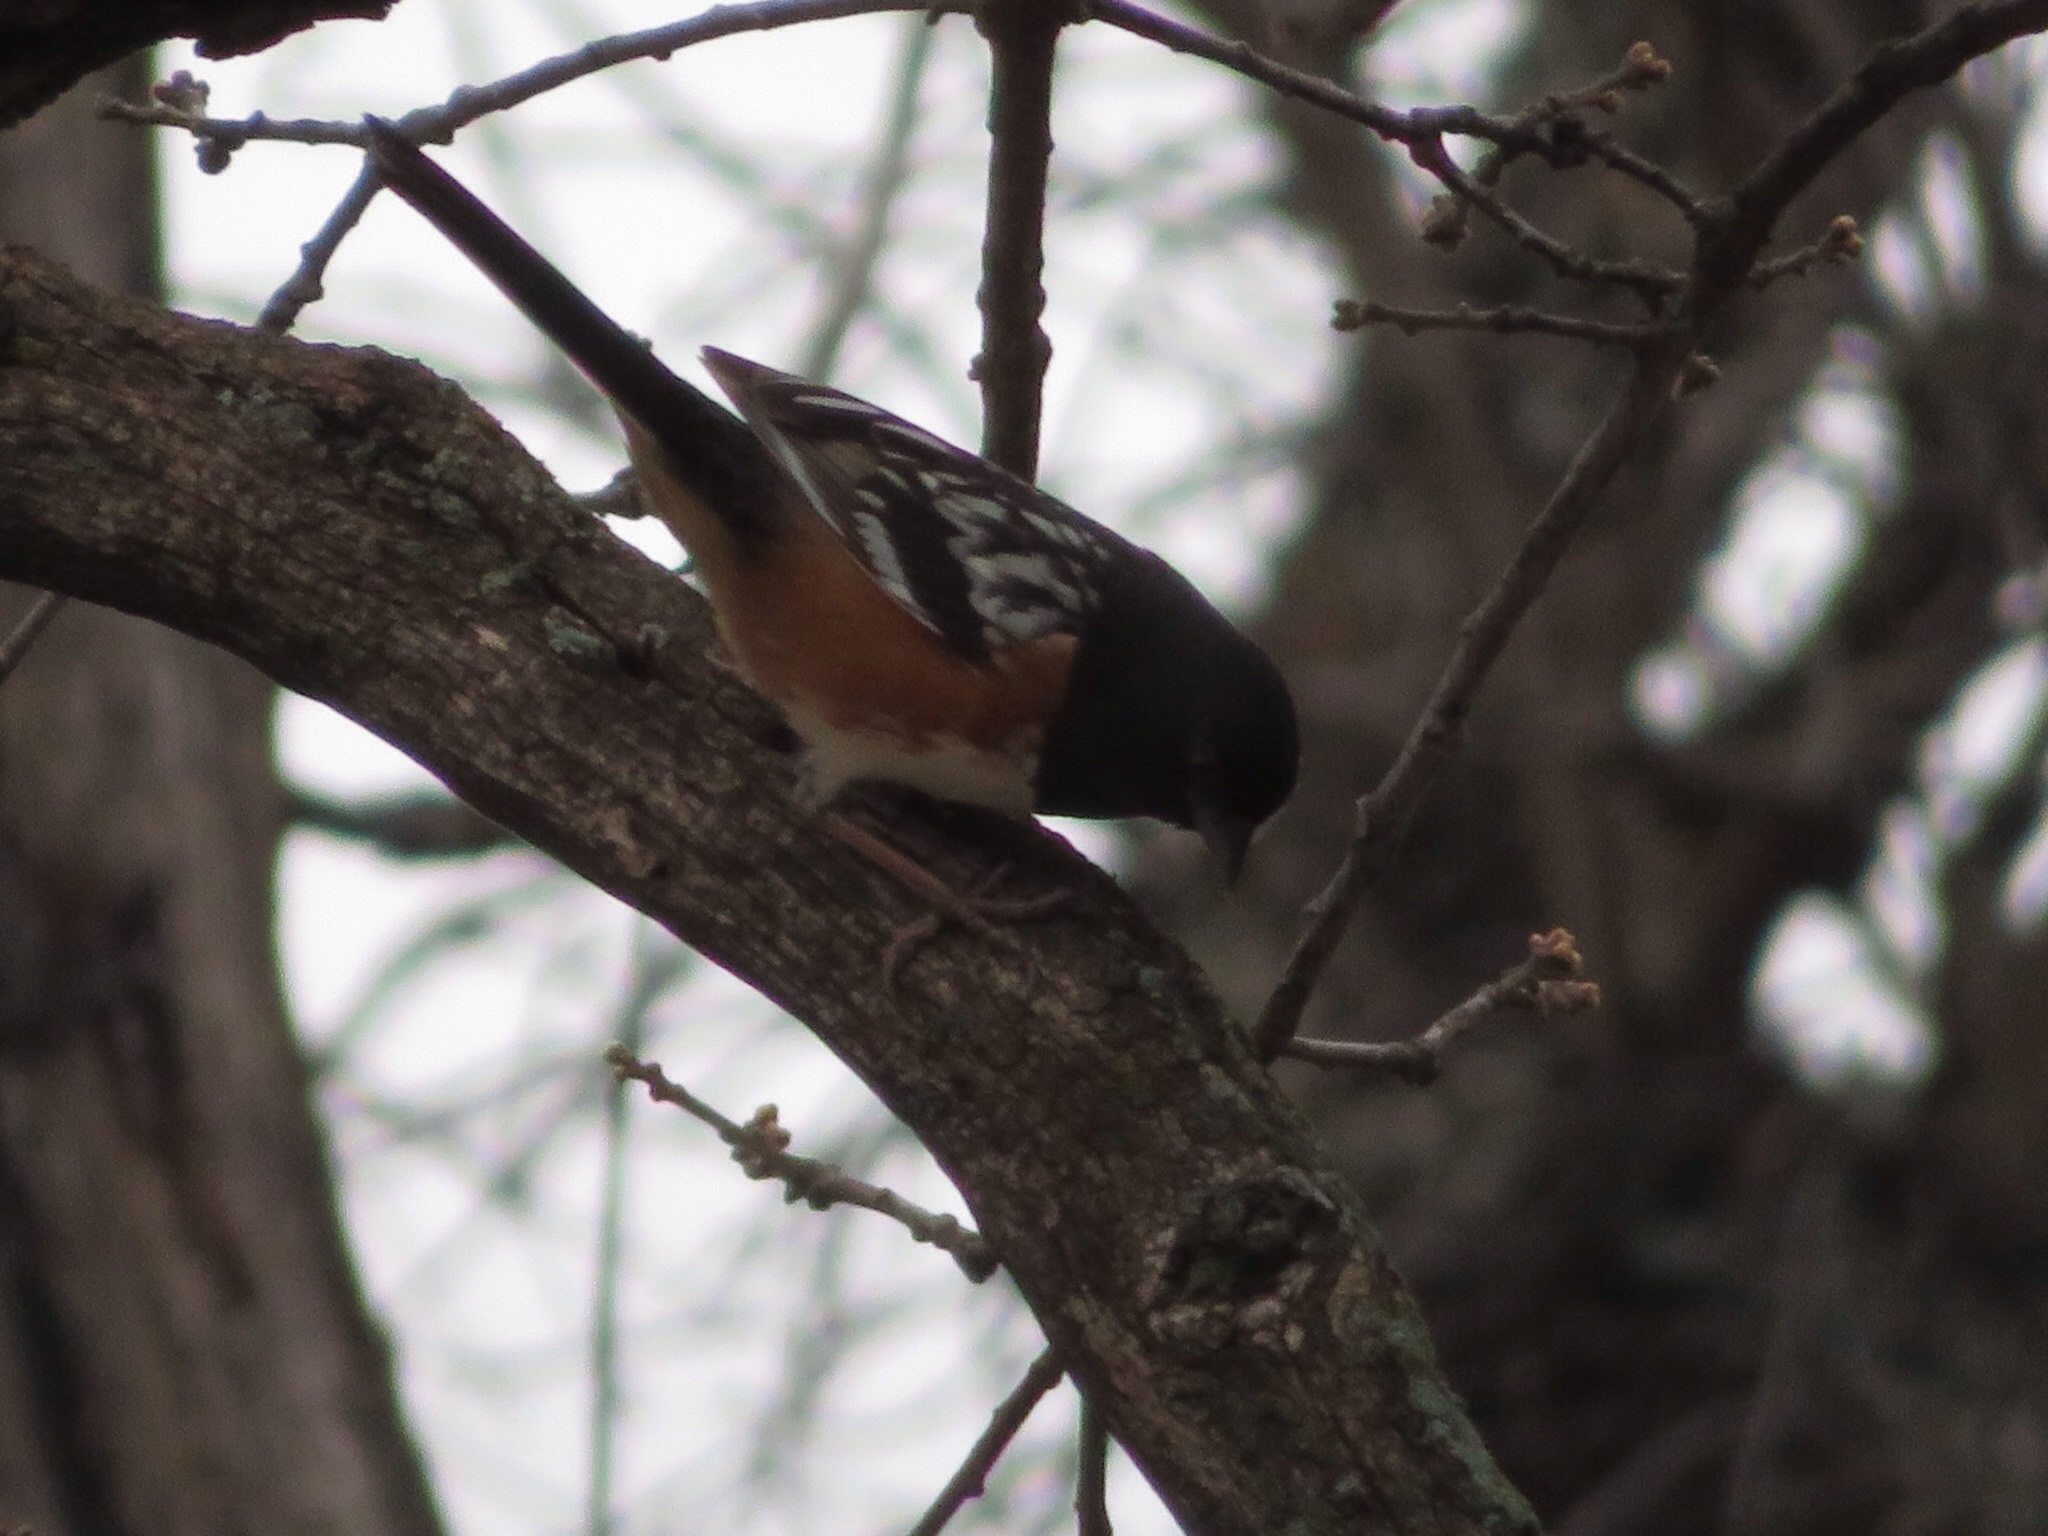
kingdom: Animalia
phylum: Chordata
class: Aves
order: Passeriformes
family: Passerellidae
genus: Pipilo
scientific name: Pipilo maculatus
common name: Spotted towhee
